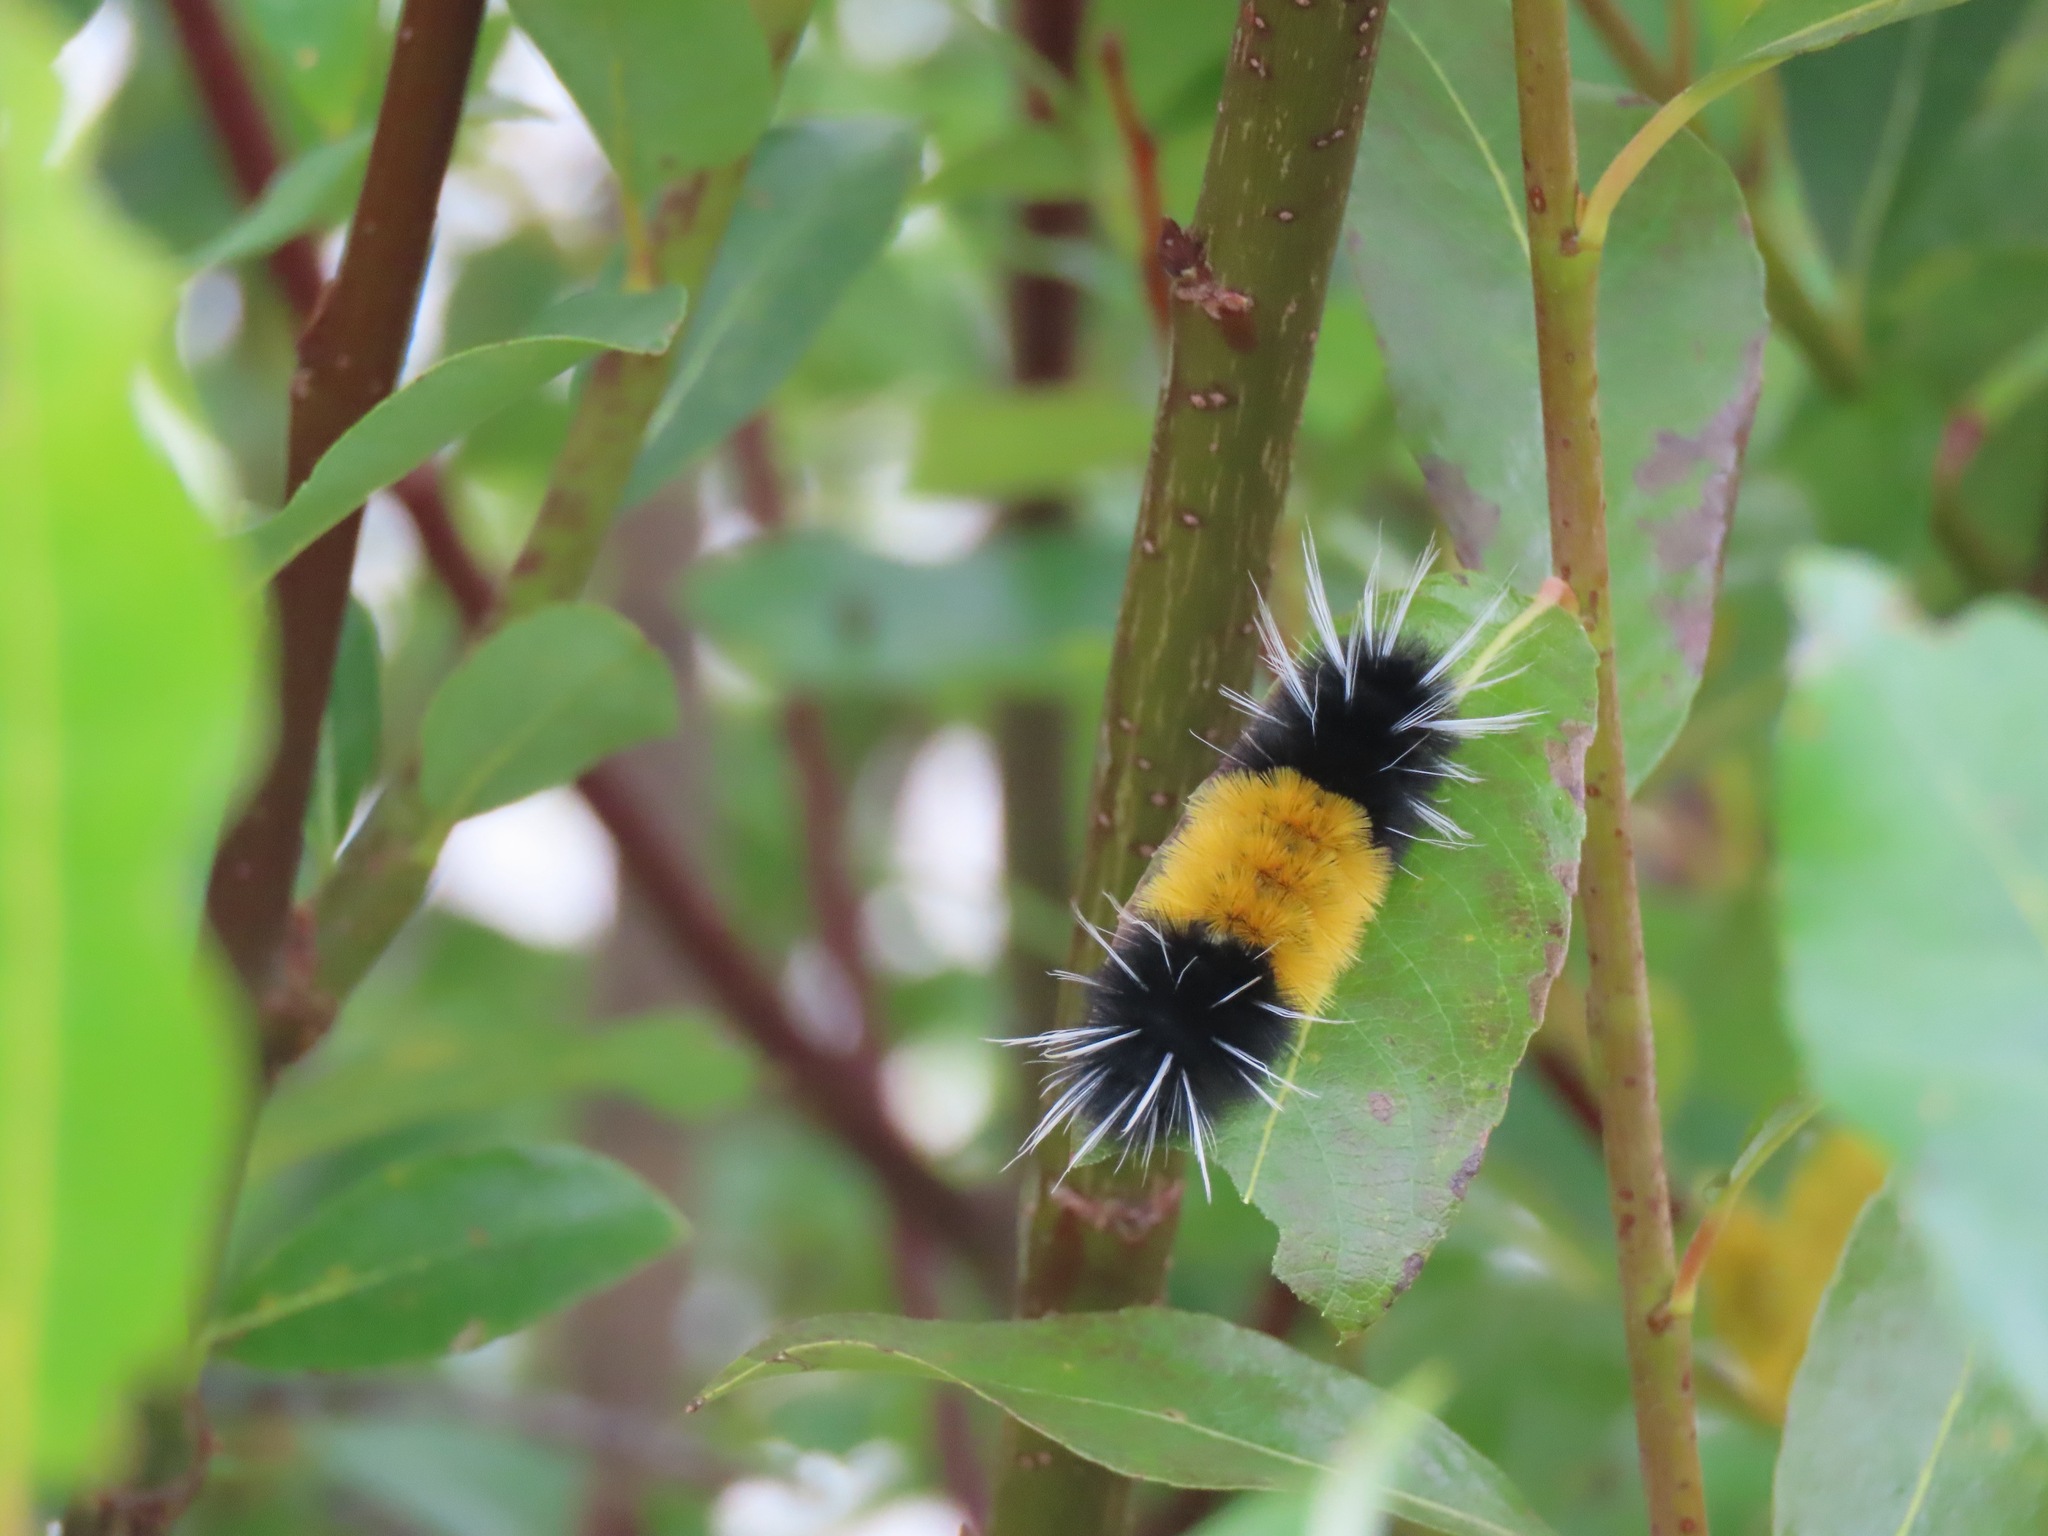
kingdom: Animalia
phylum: Arthropoda
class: Insecta
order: Lepidoptera
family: Erebidae
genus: Lophocampa
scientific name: Lophocampa maculata
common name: Spotted tussock moth
